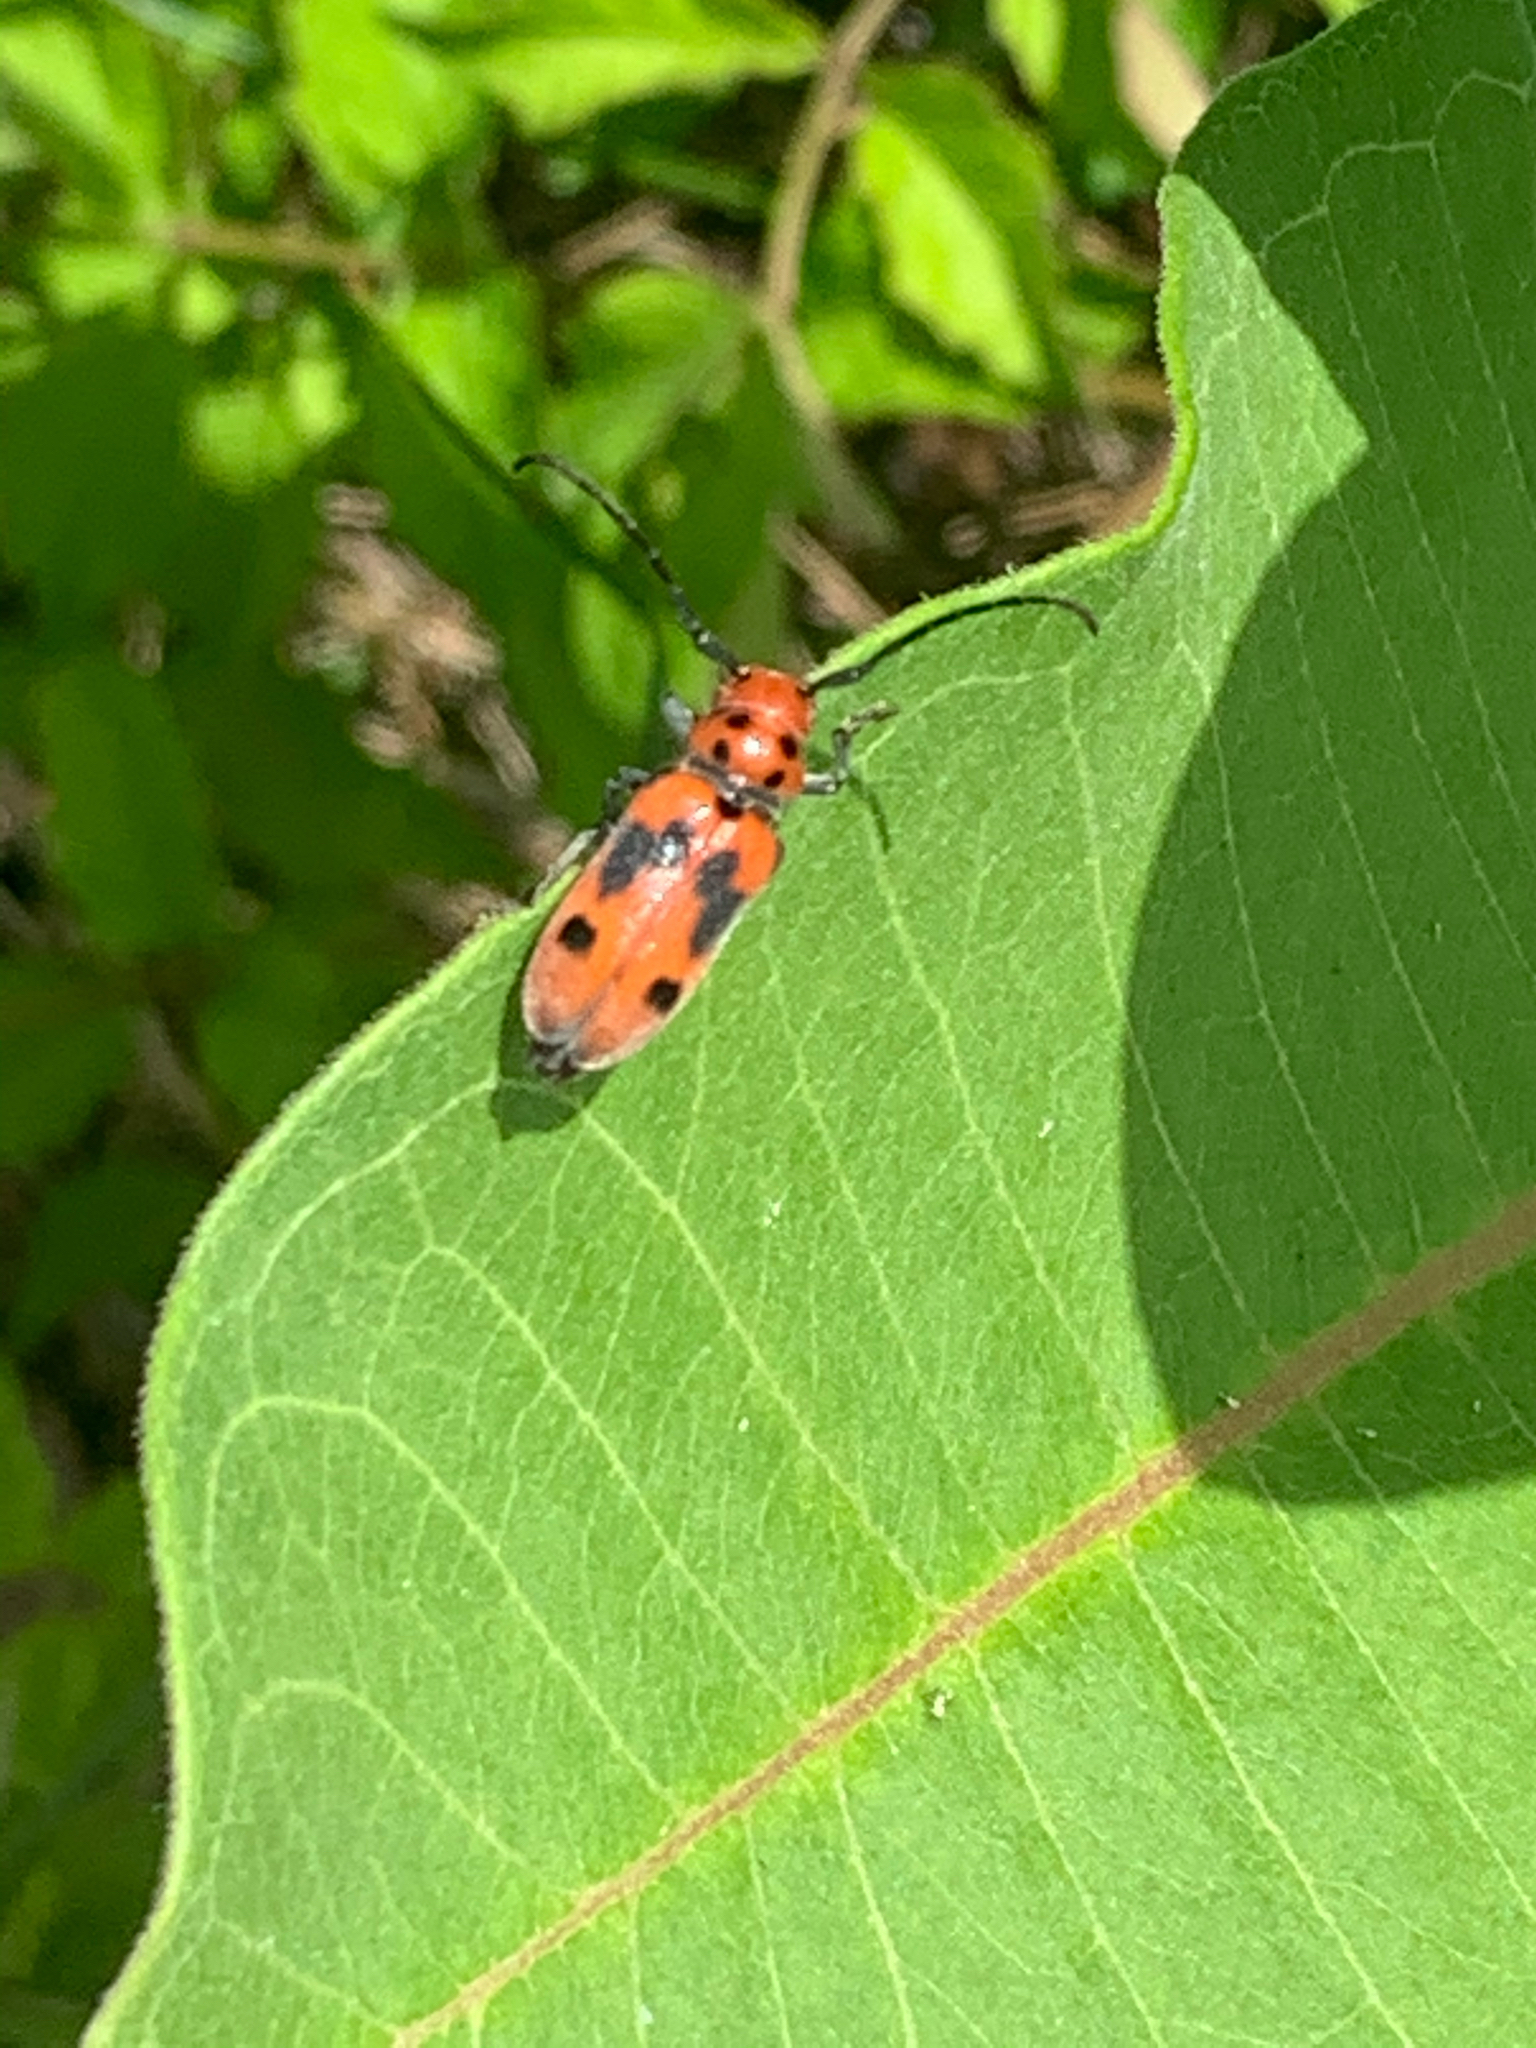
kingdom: Animalia
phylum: Arthropoda
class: Insecta
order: Coleoptera
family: Cerambycidae
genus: Tetraopes
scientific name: Tetraopes tetrophthalmus
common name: Red milkweed beetle
